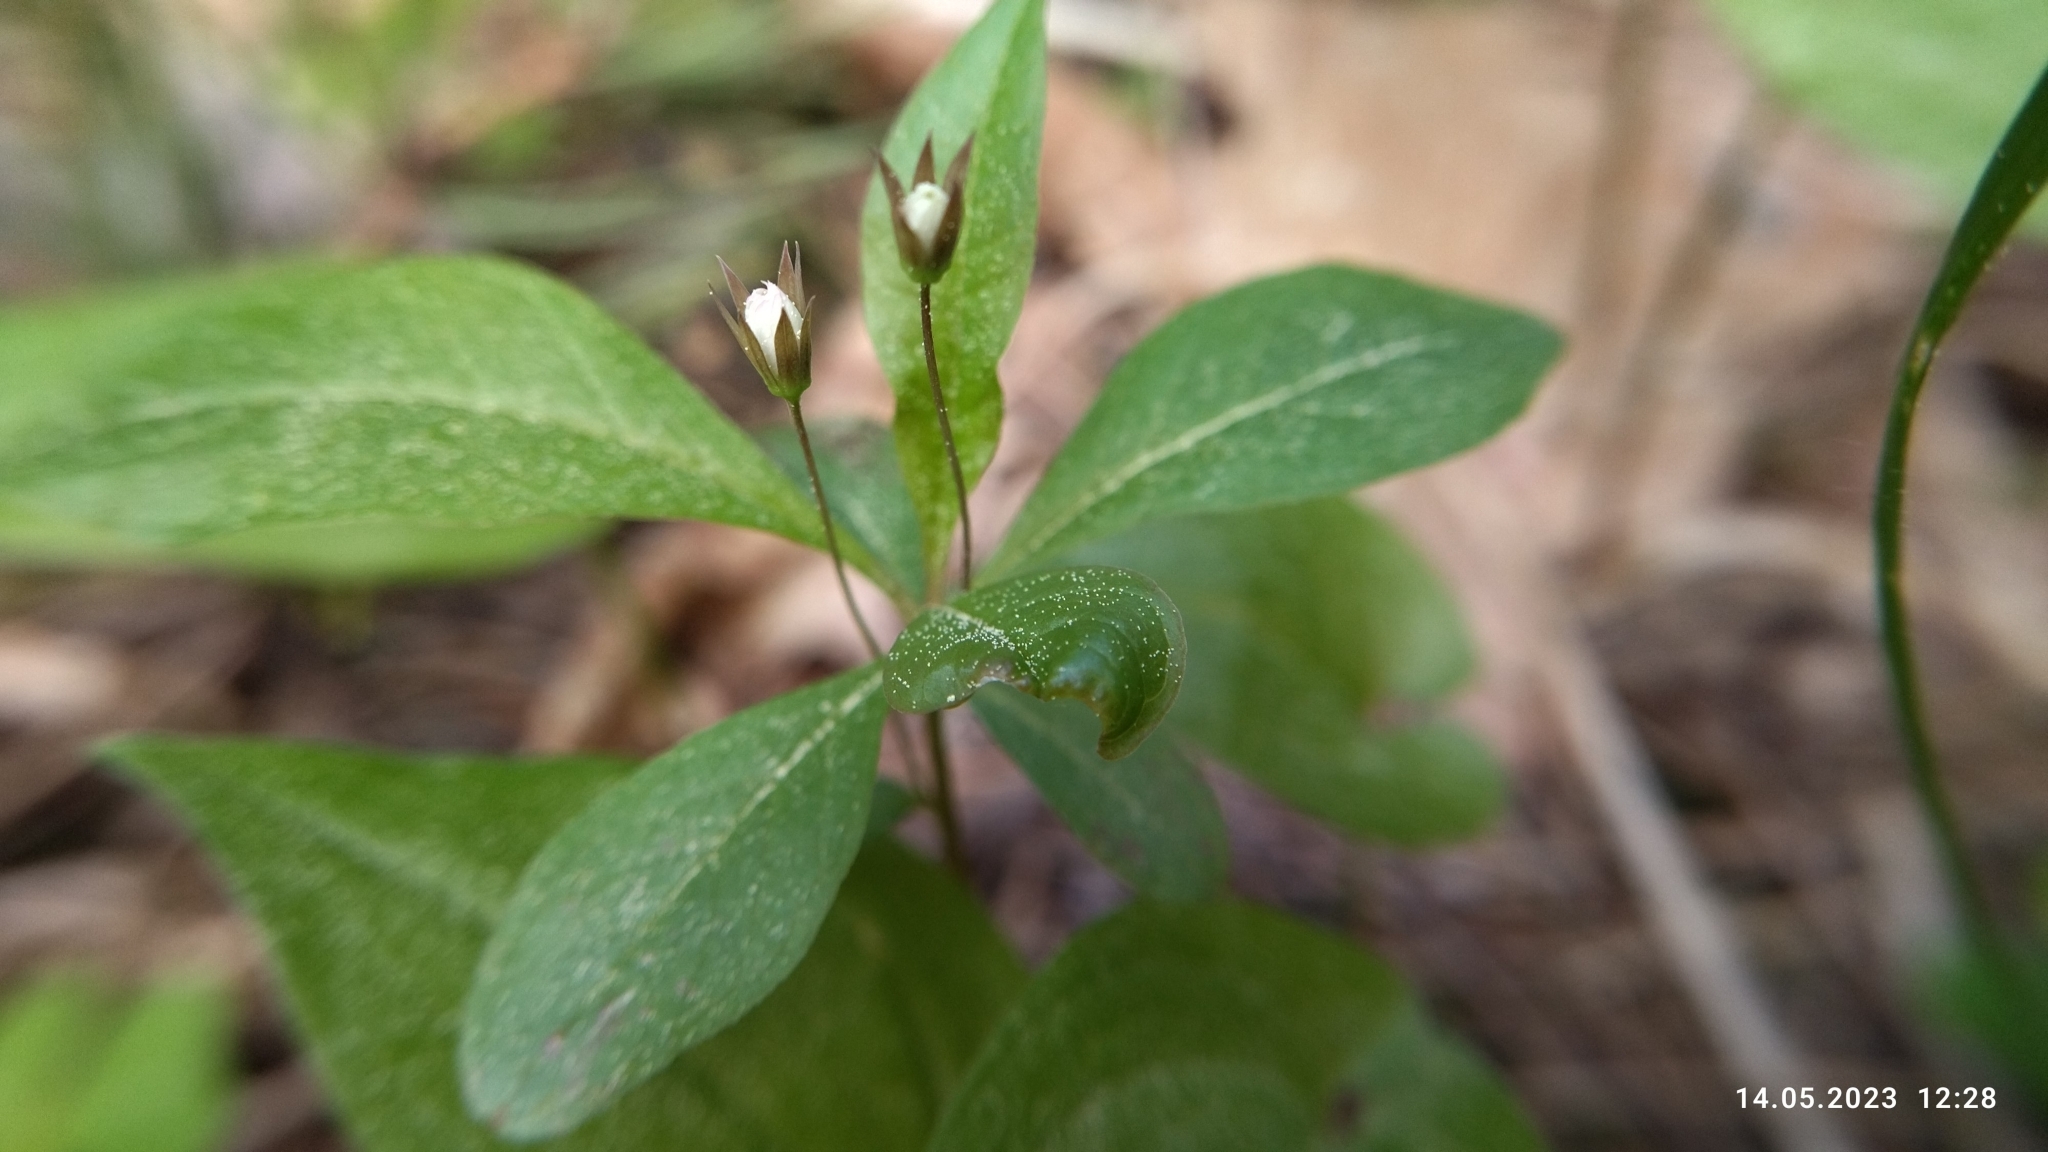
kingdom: Plantae
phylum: Tracheophyta
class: Magnoliopsida
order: Ericales
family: Primulaceae
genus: Lysimachia
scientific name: Lysimachia europaea
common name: Arctic starflower
